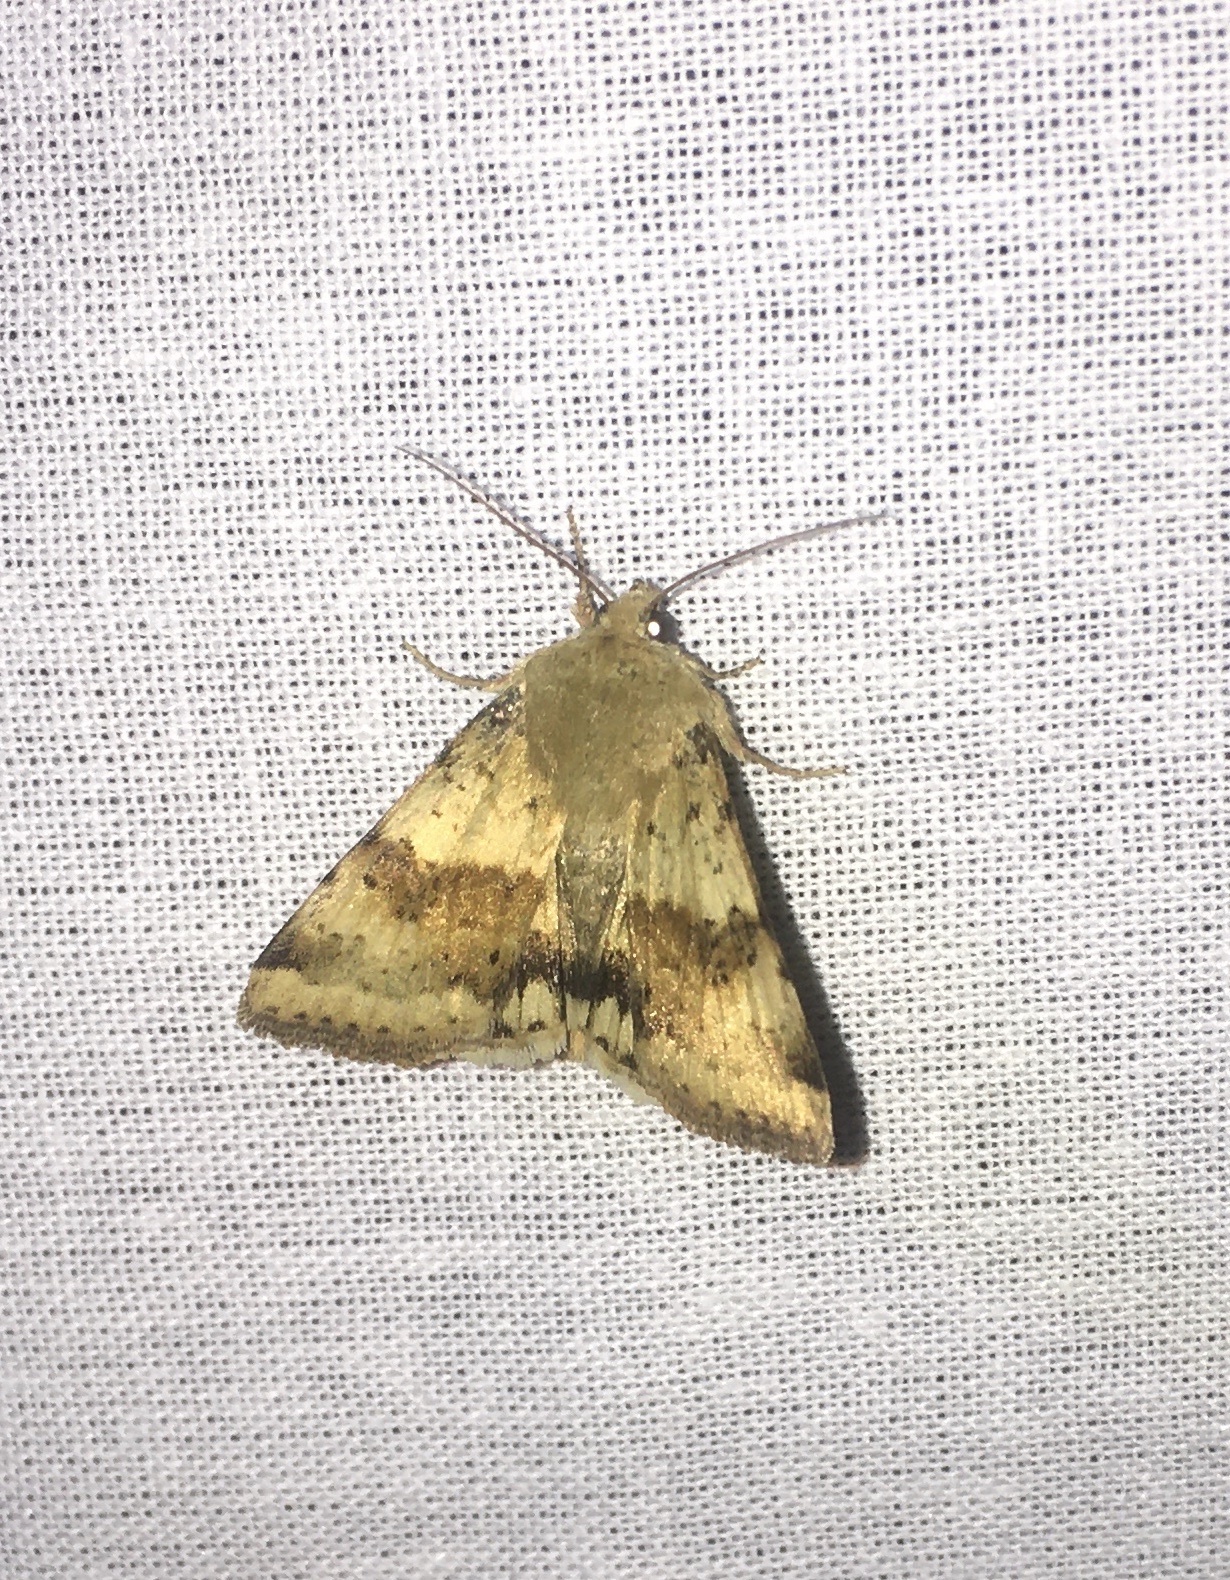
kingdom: Animalia
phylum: Arthropoda
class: Insecta
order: Lepidoptera
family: Noctuidae
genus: Heliothis
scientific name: Heliothis viriplaca
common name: Marbled clover
